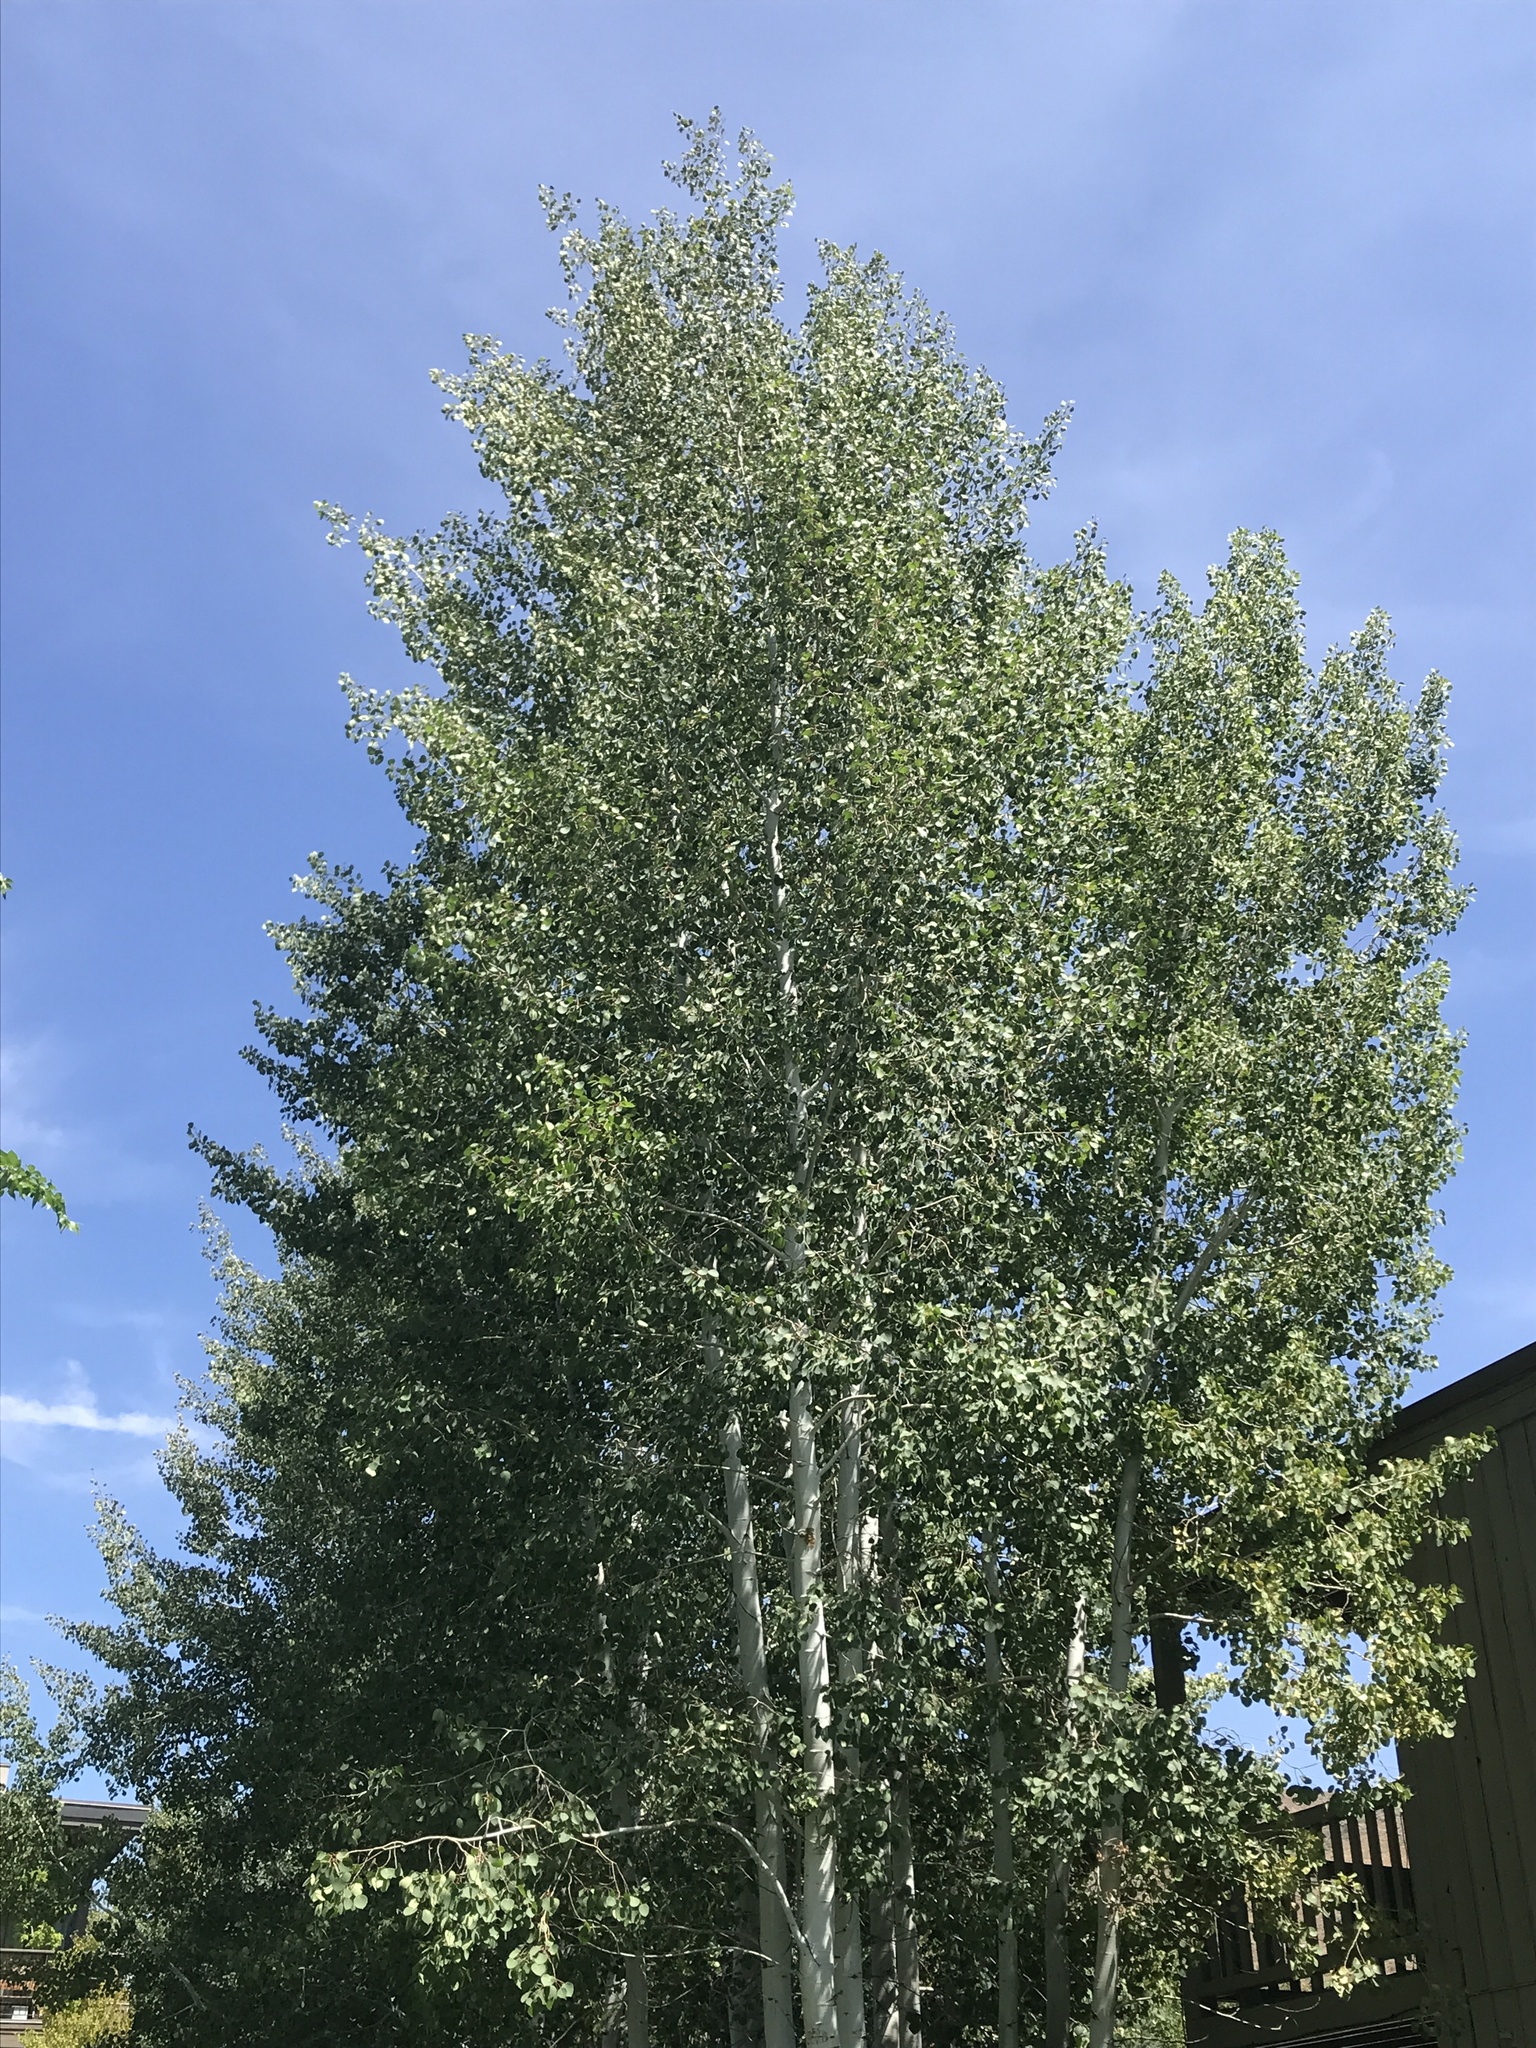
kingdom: Plantae
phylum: Tracheophyta
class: Magnoliopsida
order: Malpighiales
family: Salicaceae
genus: Populus
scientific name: Populus tremuloides
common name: Quaking aspen
